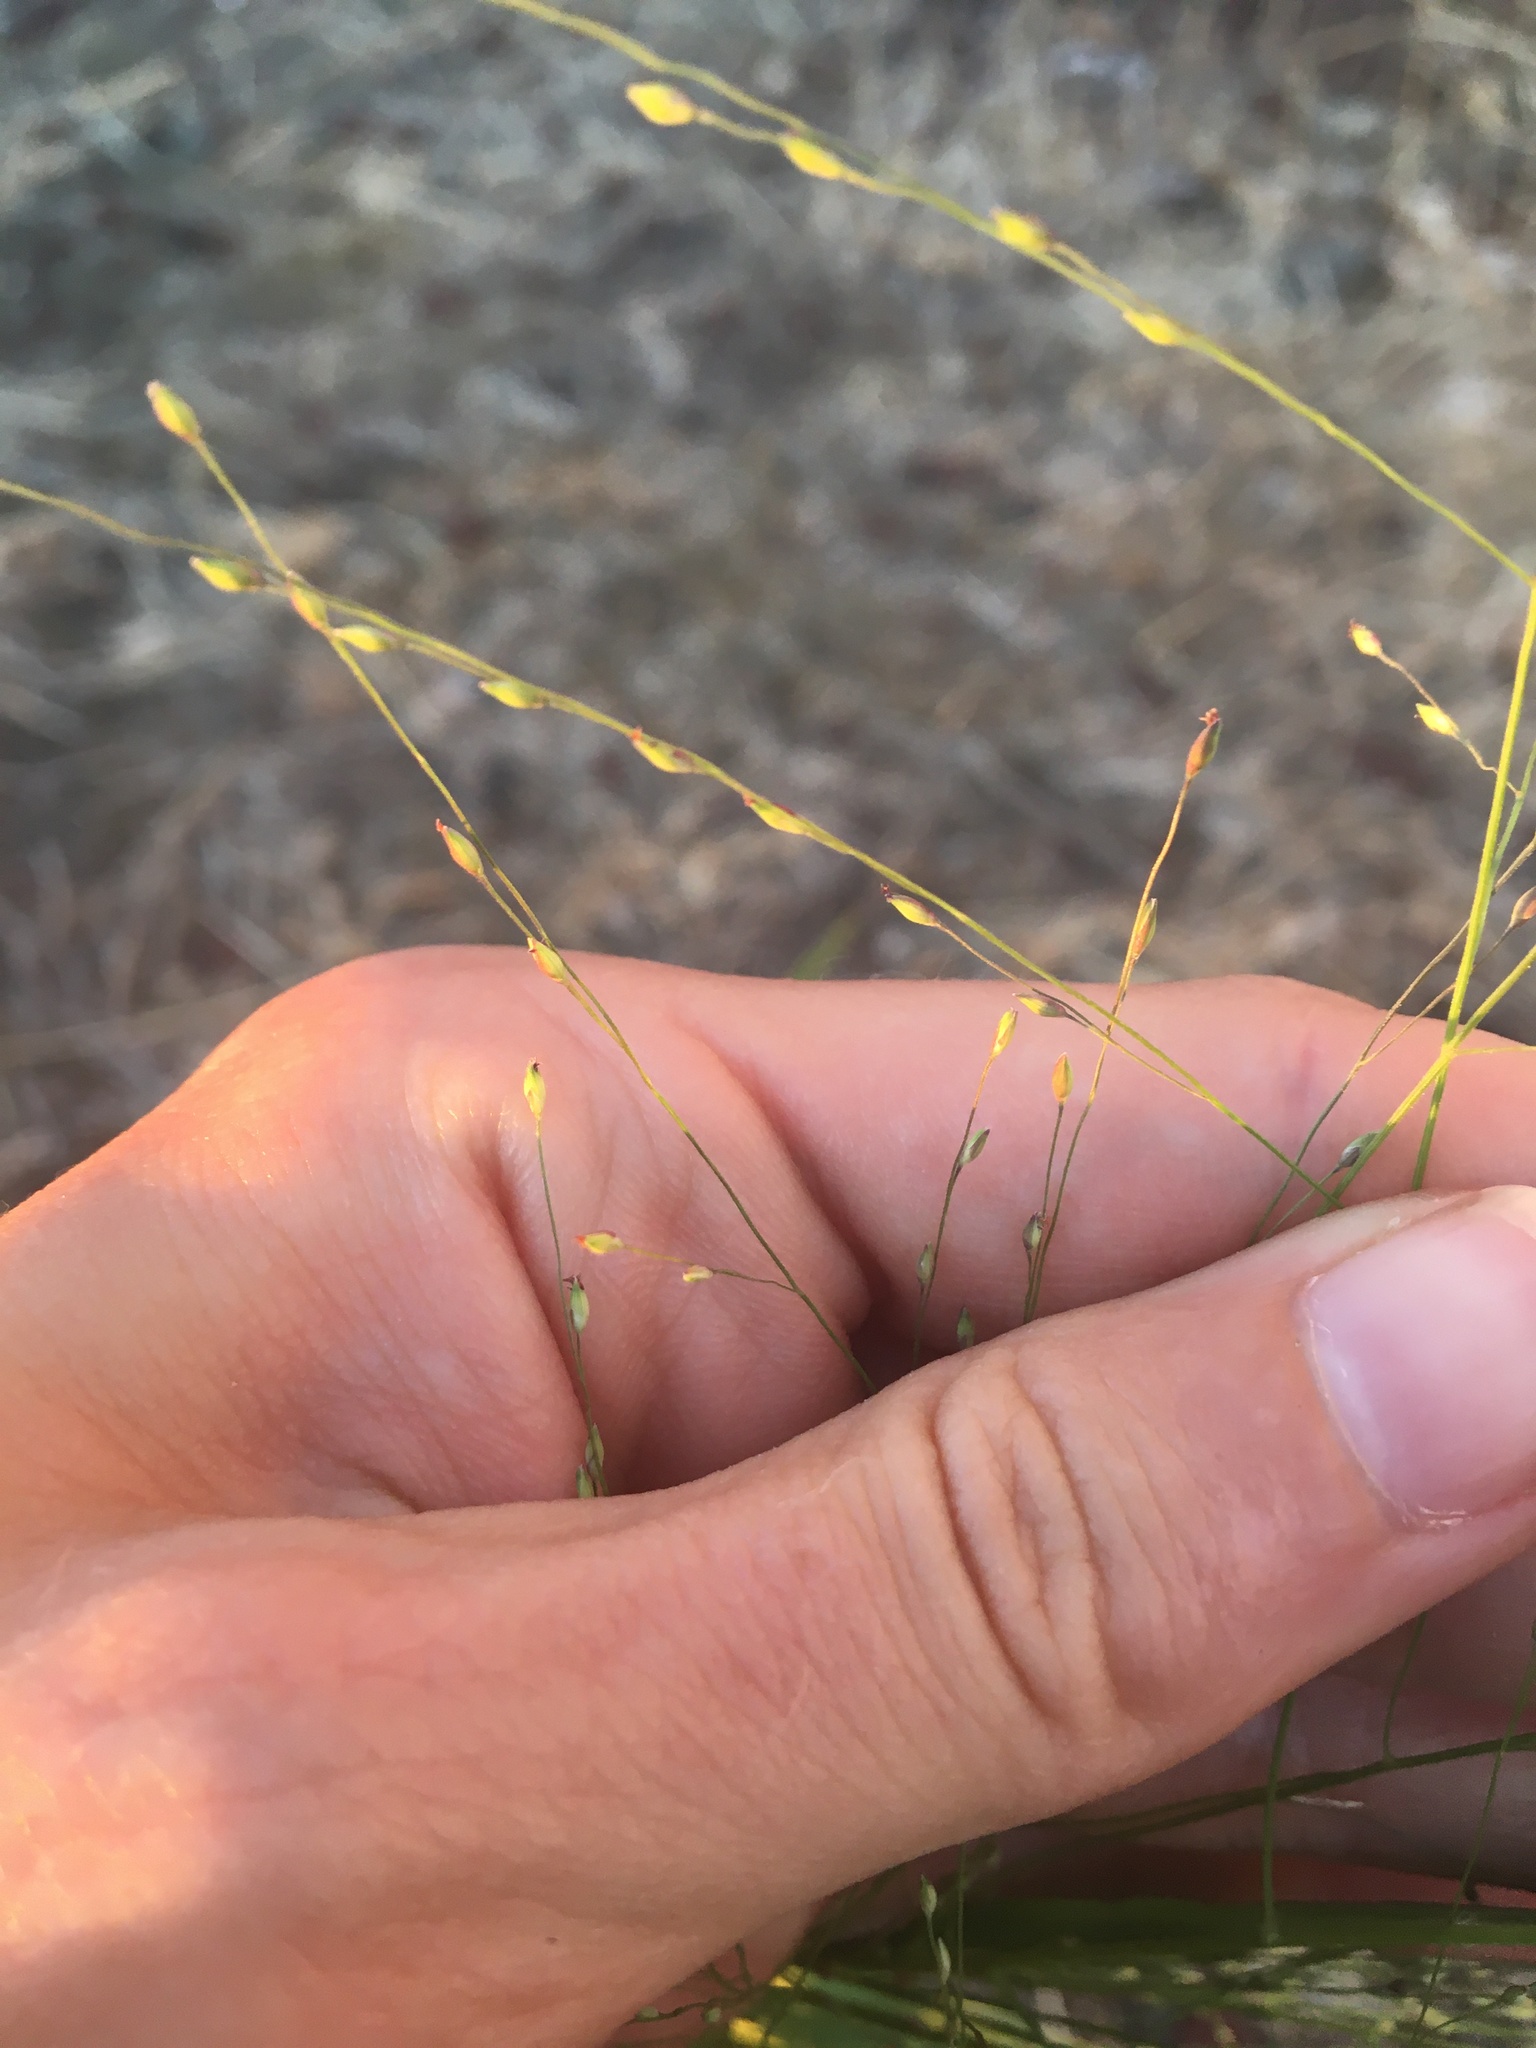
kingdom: Plantae
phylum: Tracheophyta
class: Liliopsida
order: Poales
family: Poaceae
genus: Panicum
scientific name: Panicum capillare
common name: Witch-grass
